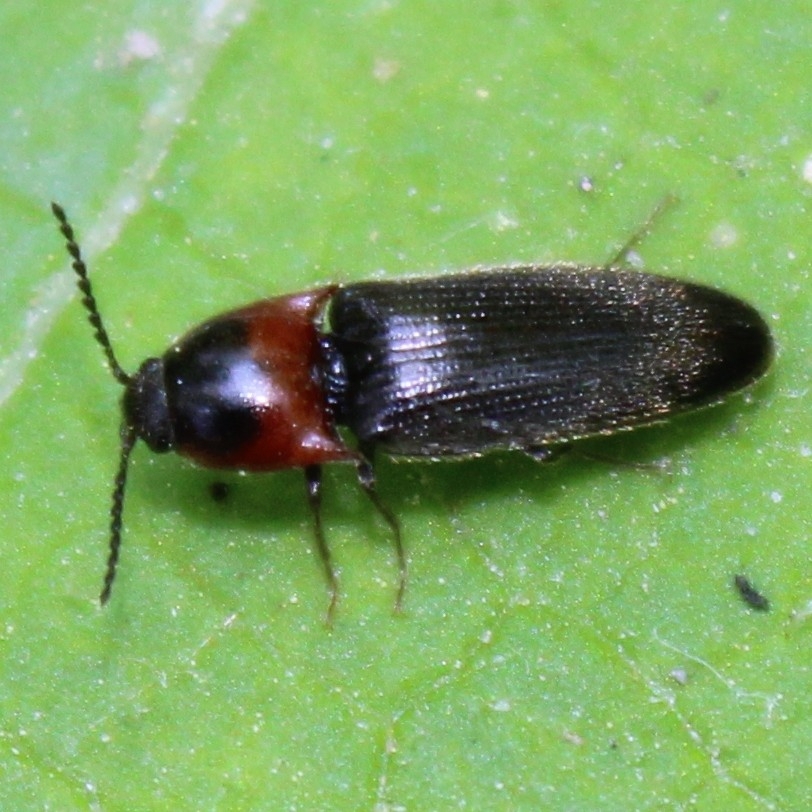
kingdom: Animalia
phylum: Arthropoda
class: Insecta
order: Coleoptera
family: Elateridae
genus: Ampedus
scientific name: Ampedus rubricus
